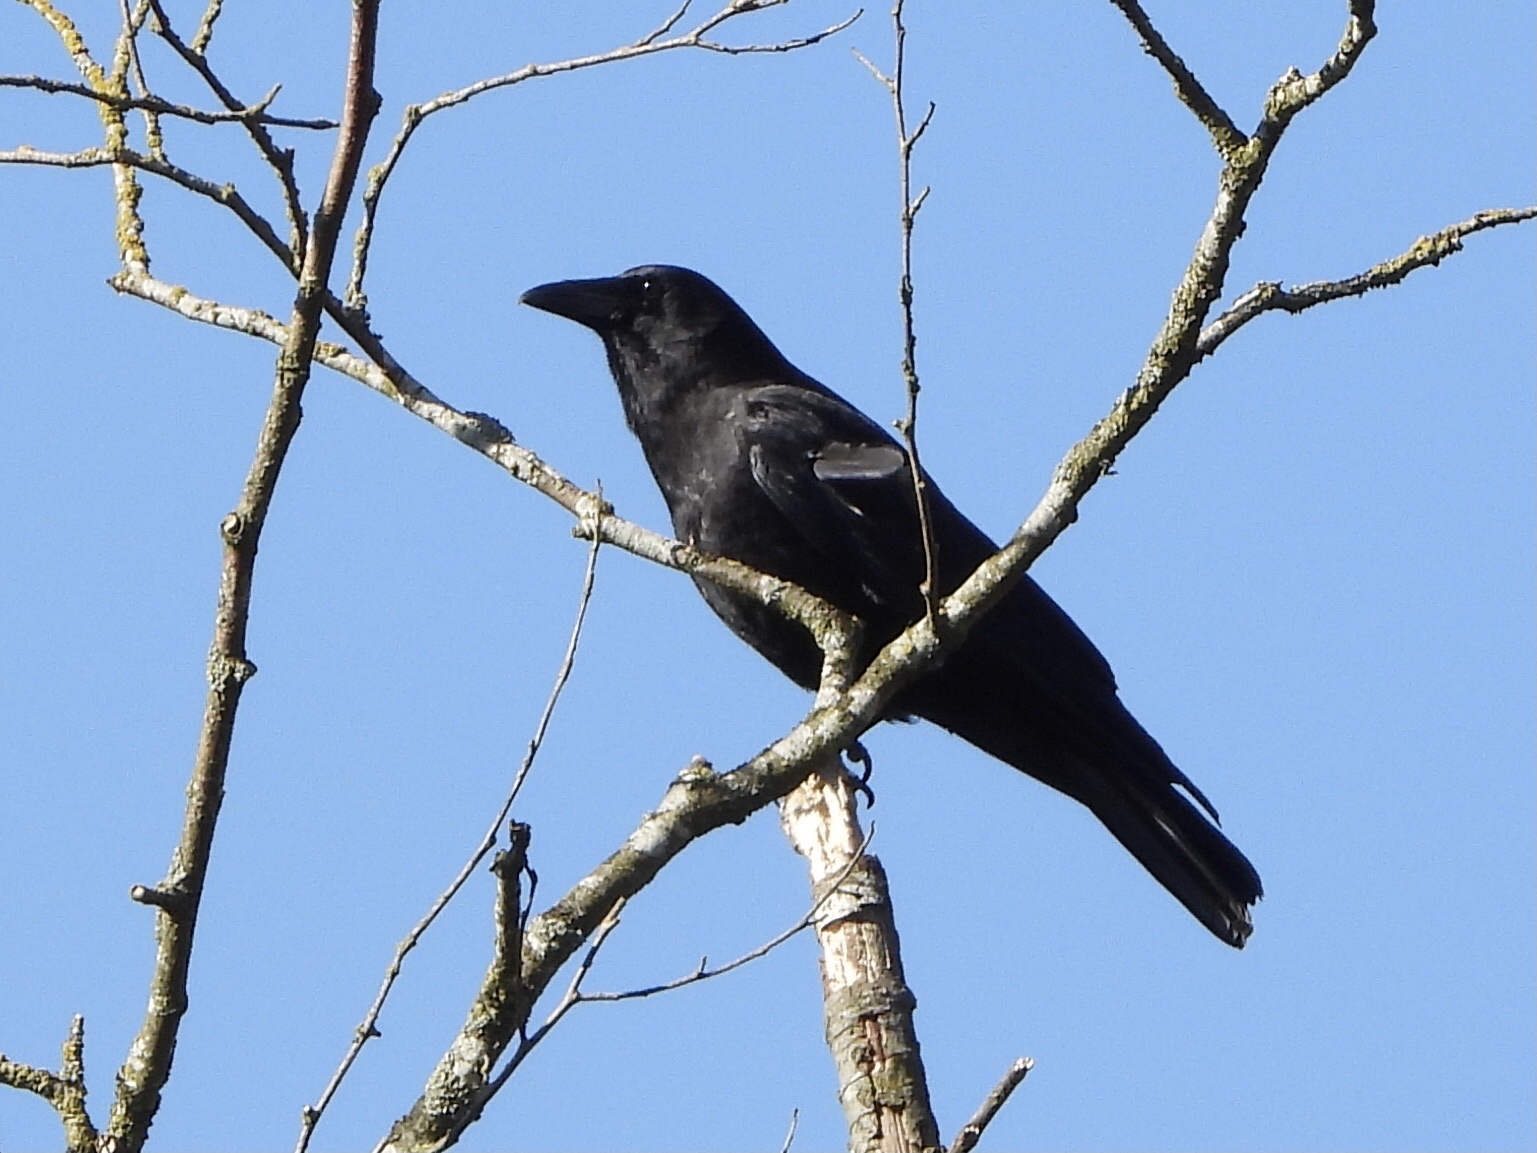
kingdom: Animalia
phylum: Chordata
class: Aves
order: Passeriformes
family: Corvidae
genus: Corvus
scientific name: Corvus brachyrhynchos
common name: American crow
